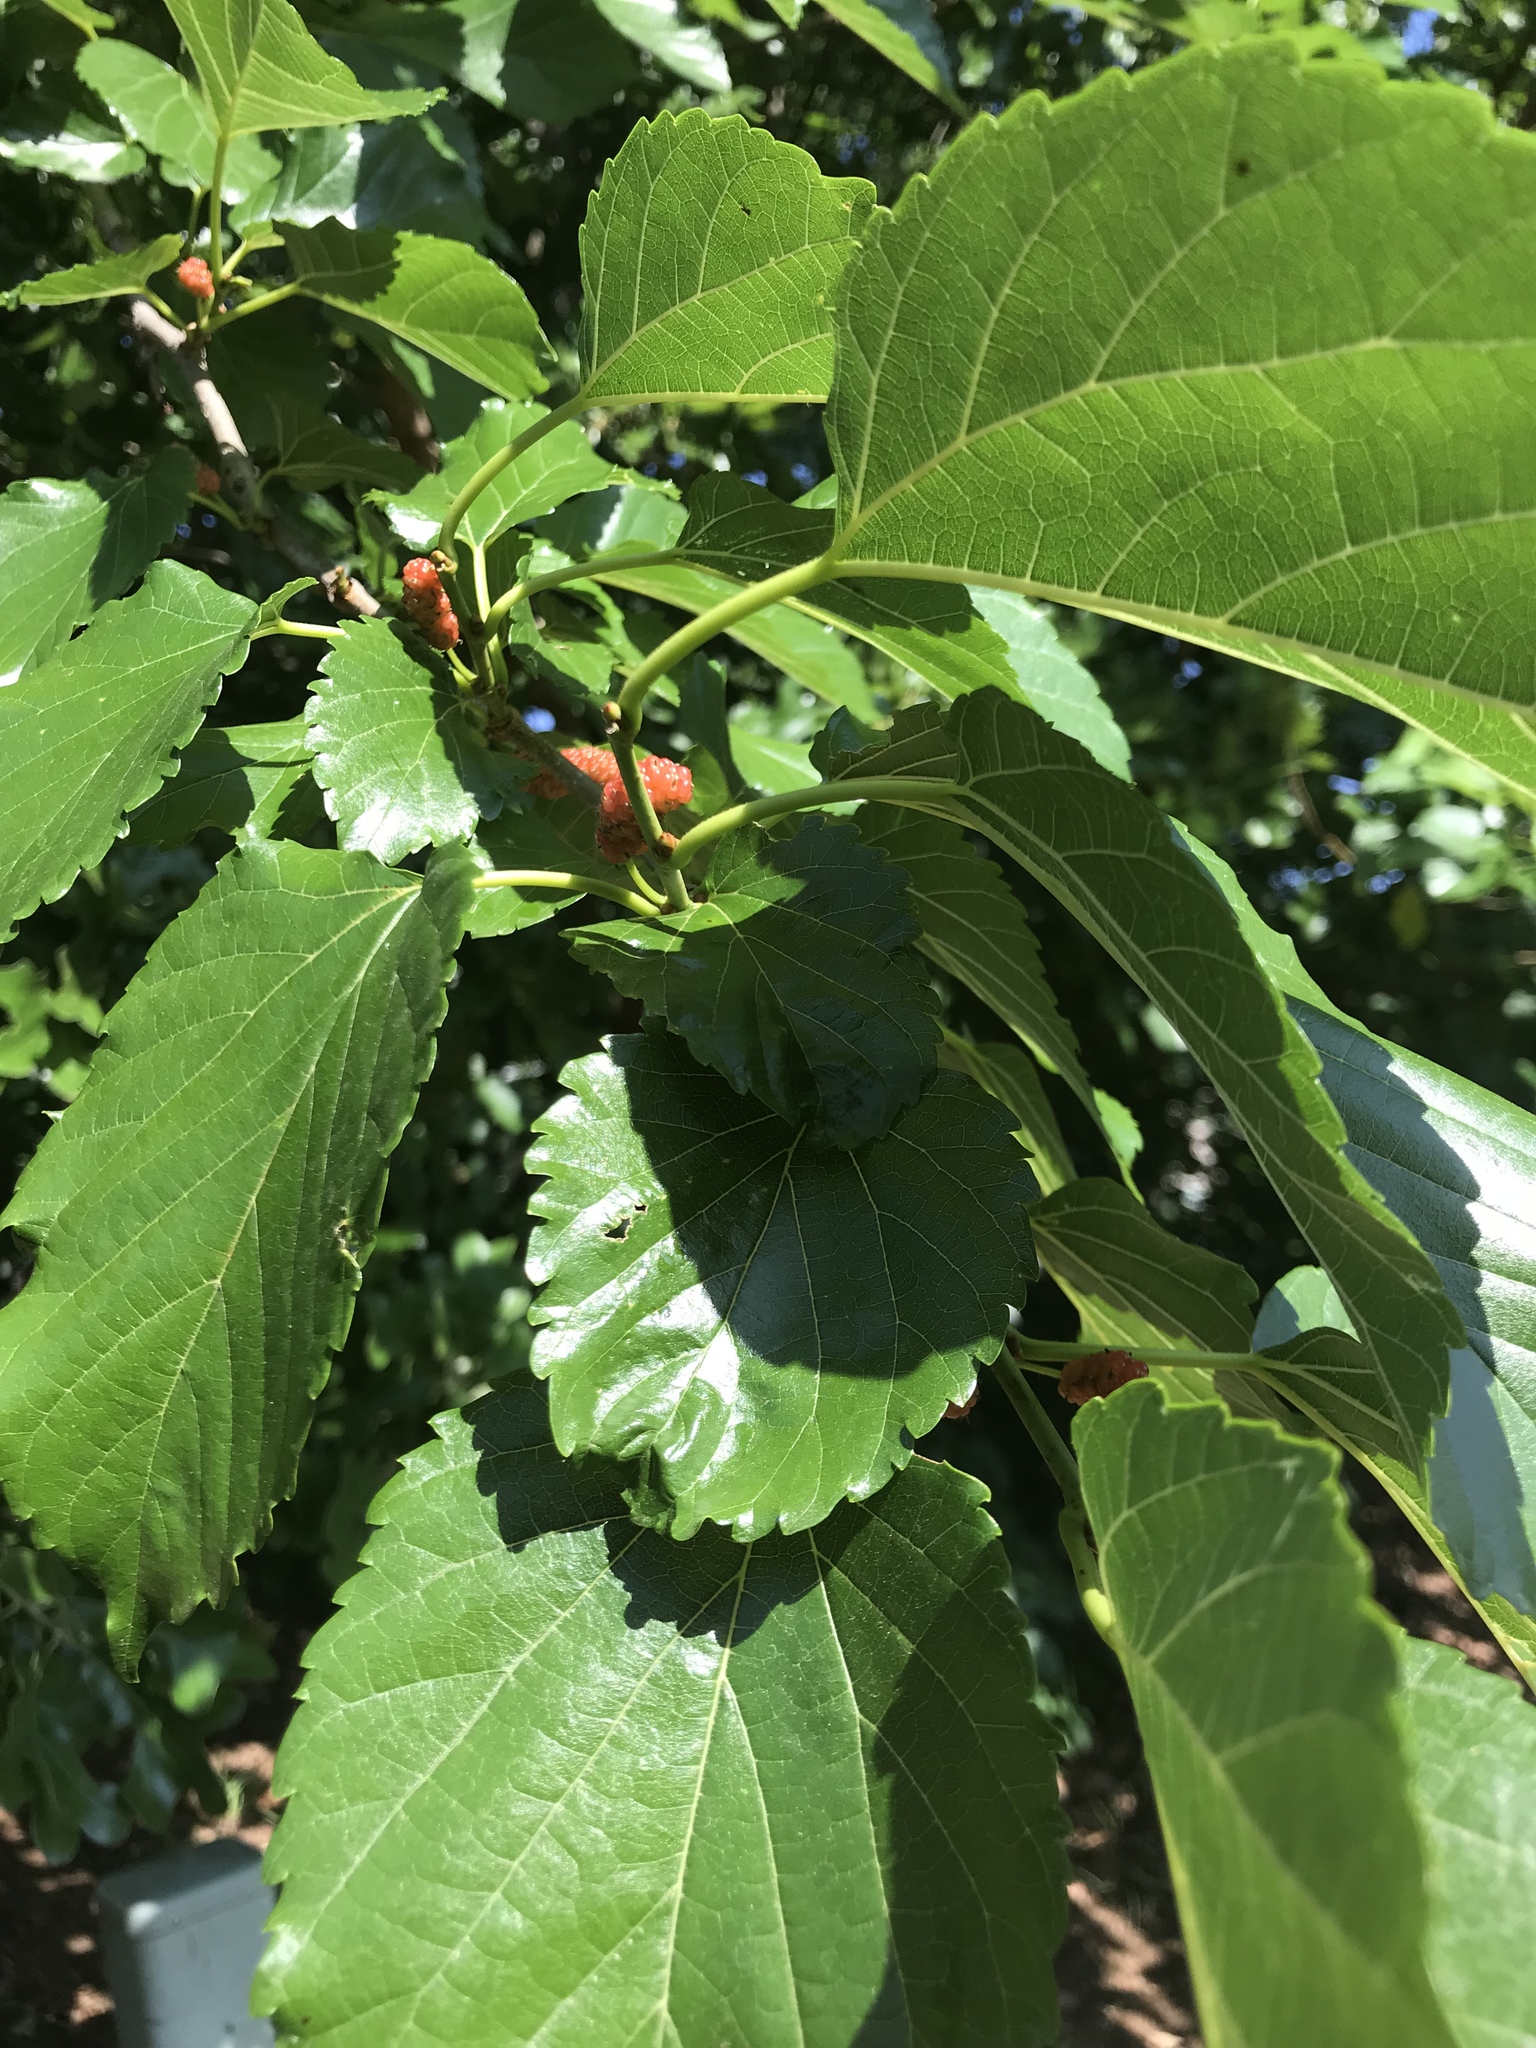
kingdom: Plantae
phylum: Tracheophyta
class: Magnoliopsida
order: Rosales
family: Moraceae
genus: Morus
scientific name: Morus alba
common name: White mulberry
